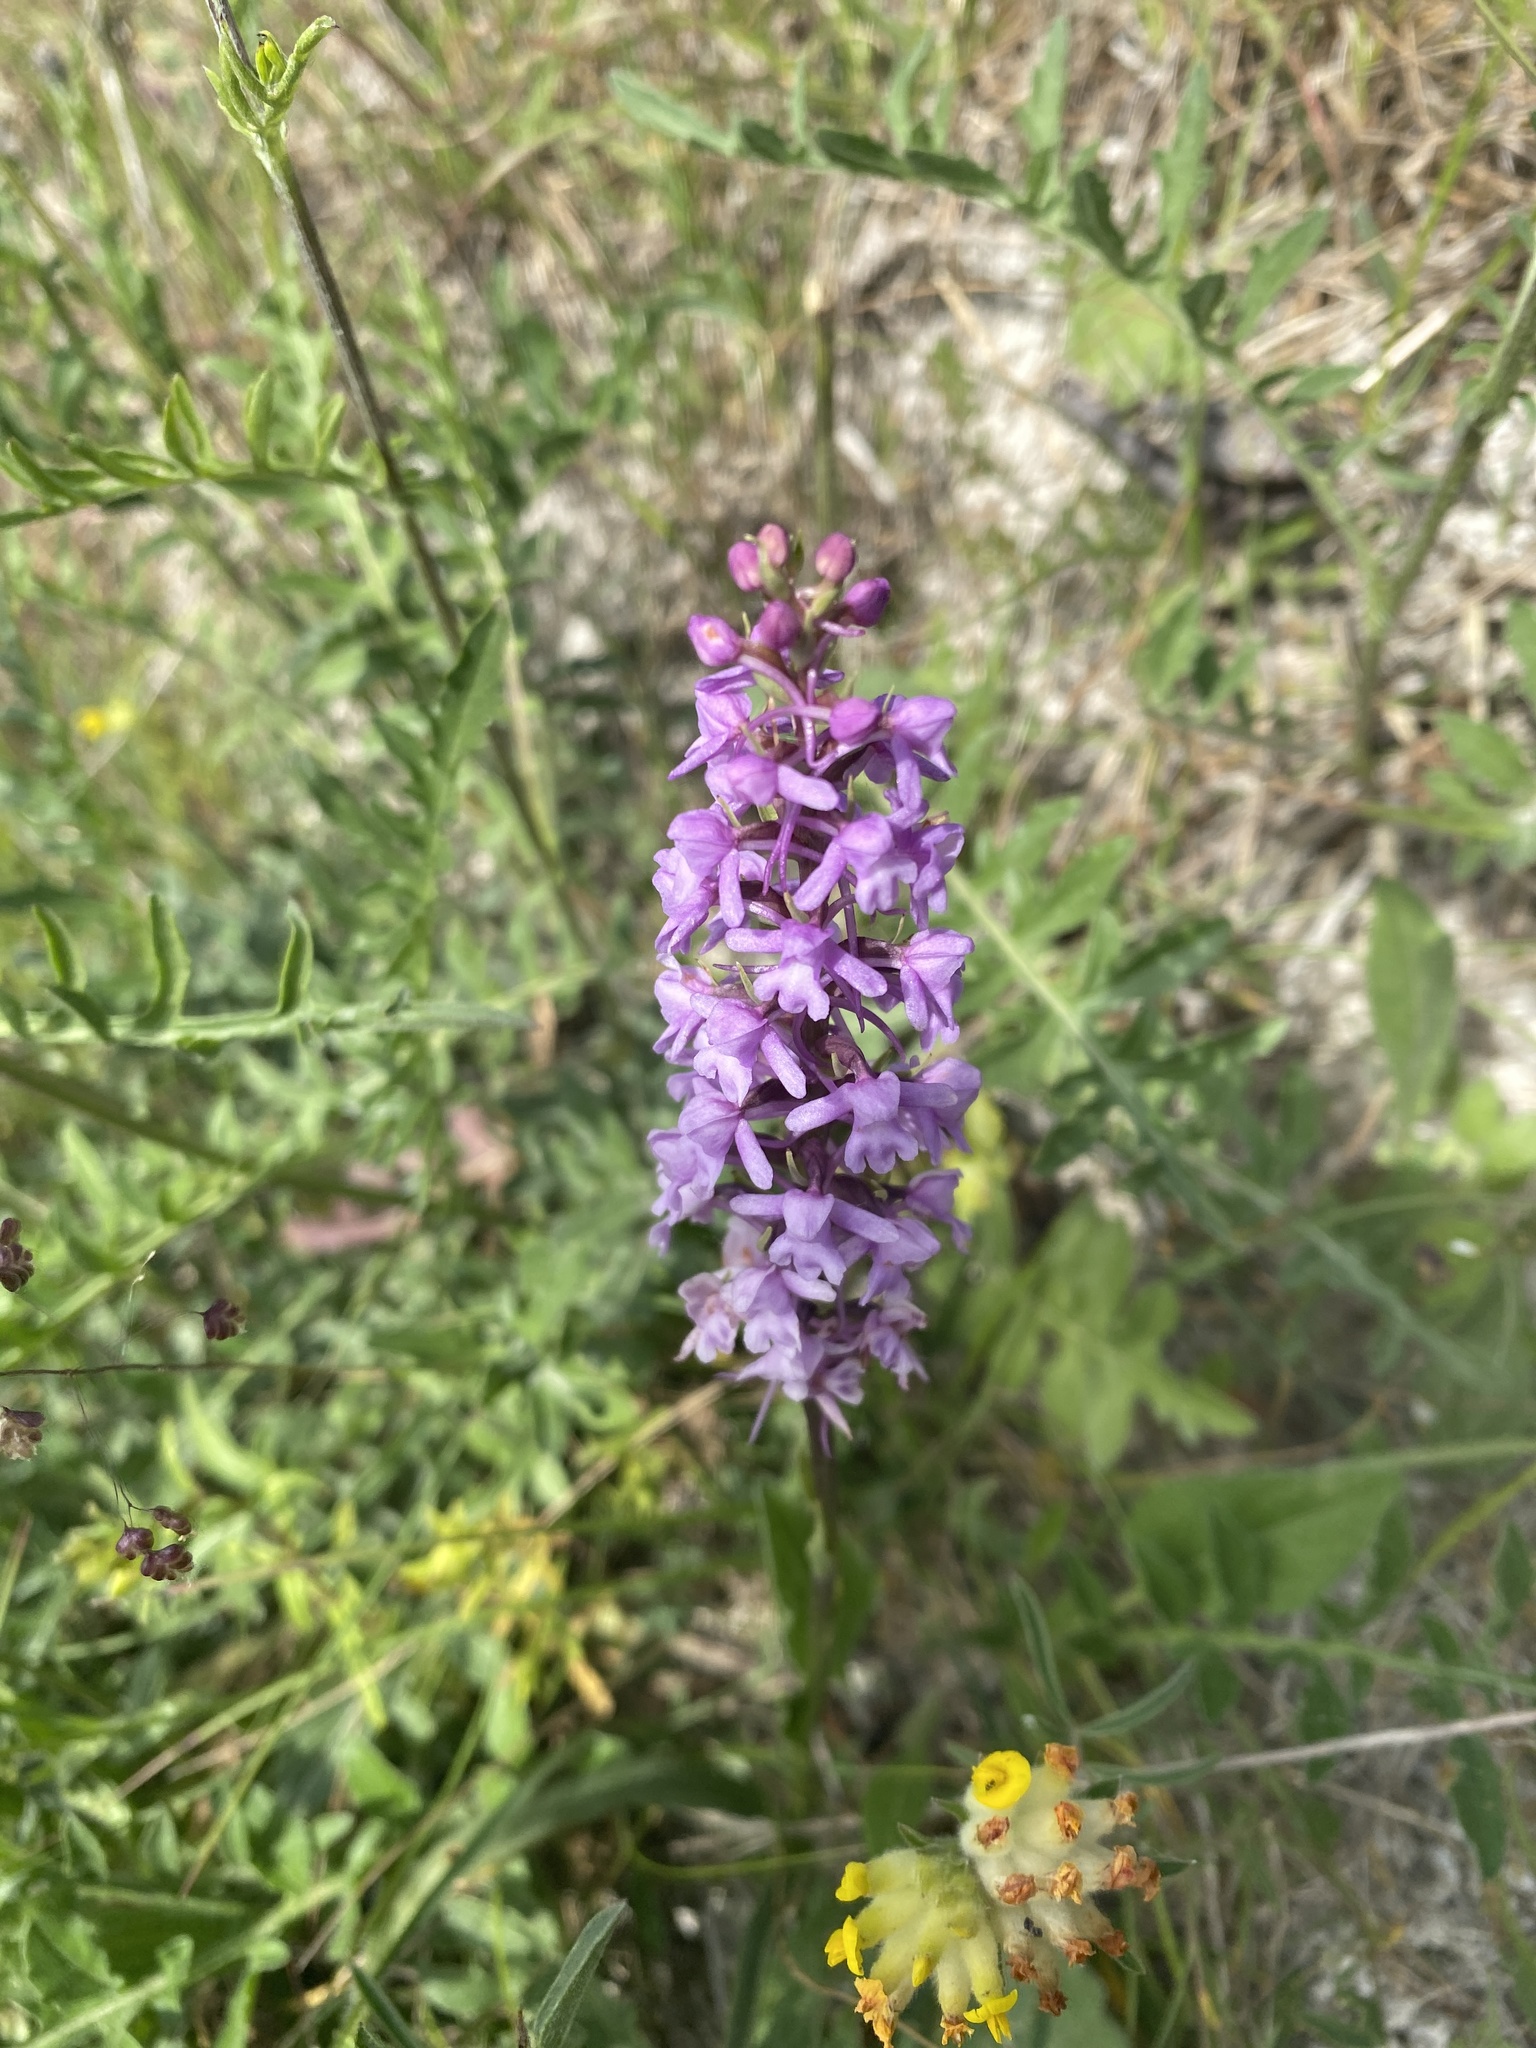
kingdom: Plantae
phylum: Tracheophyta
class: Liliopsida
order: Asparagales
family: Orchidaceae
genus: Gymnadenia
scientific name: Gymnadenia conopsea
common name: Fragrant orchid
